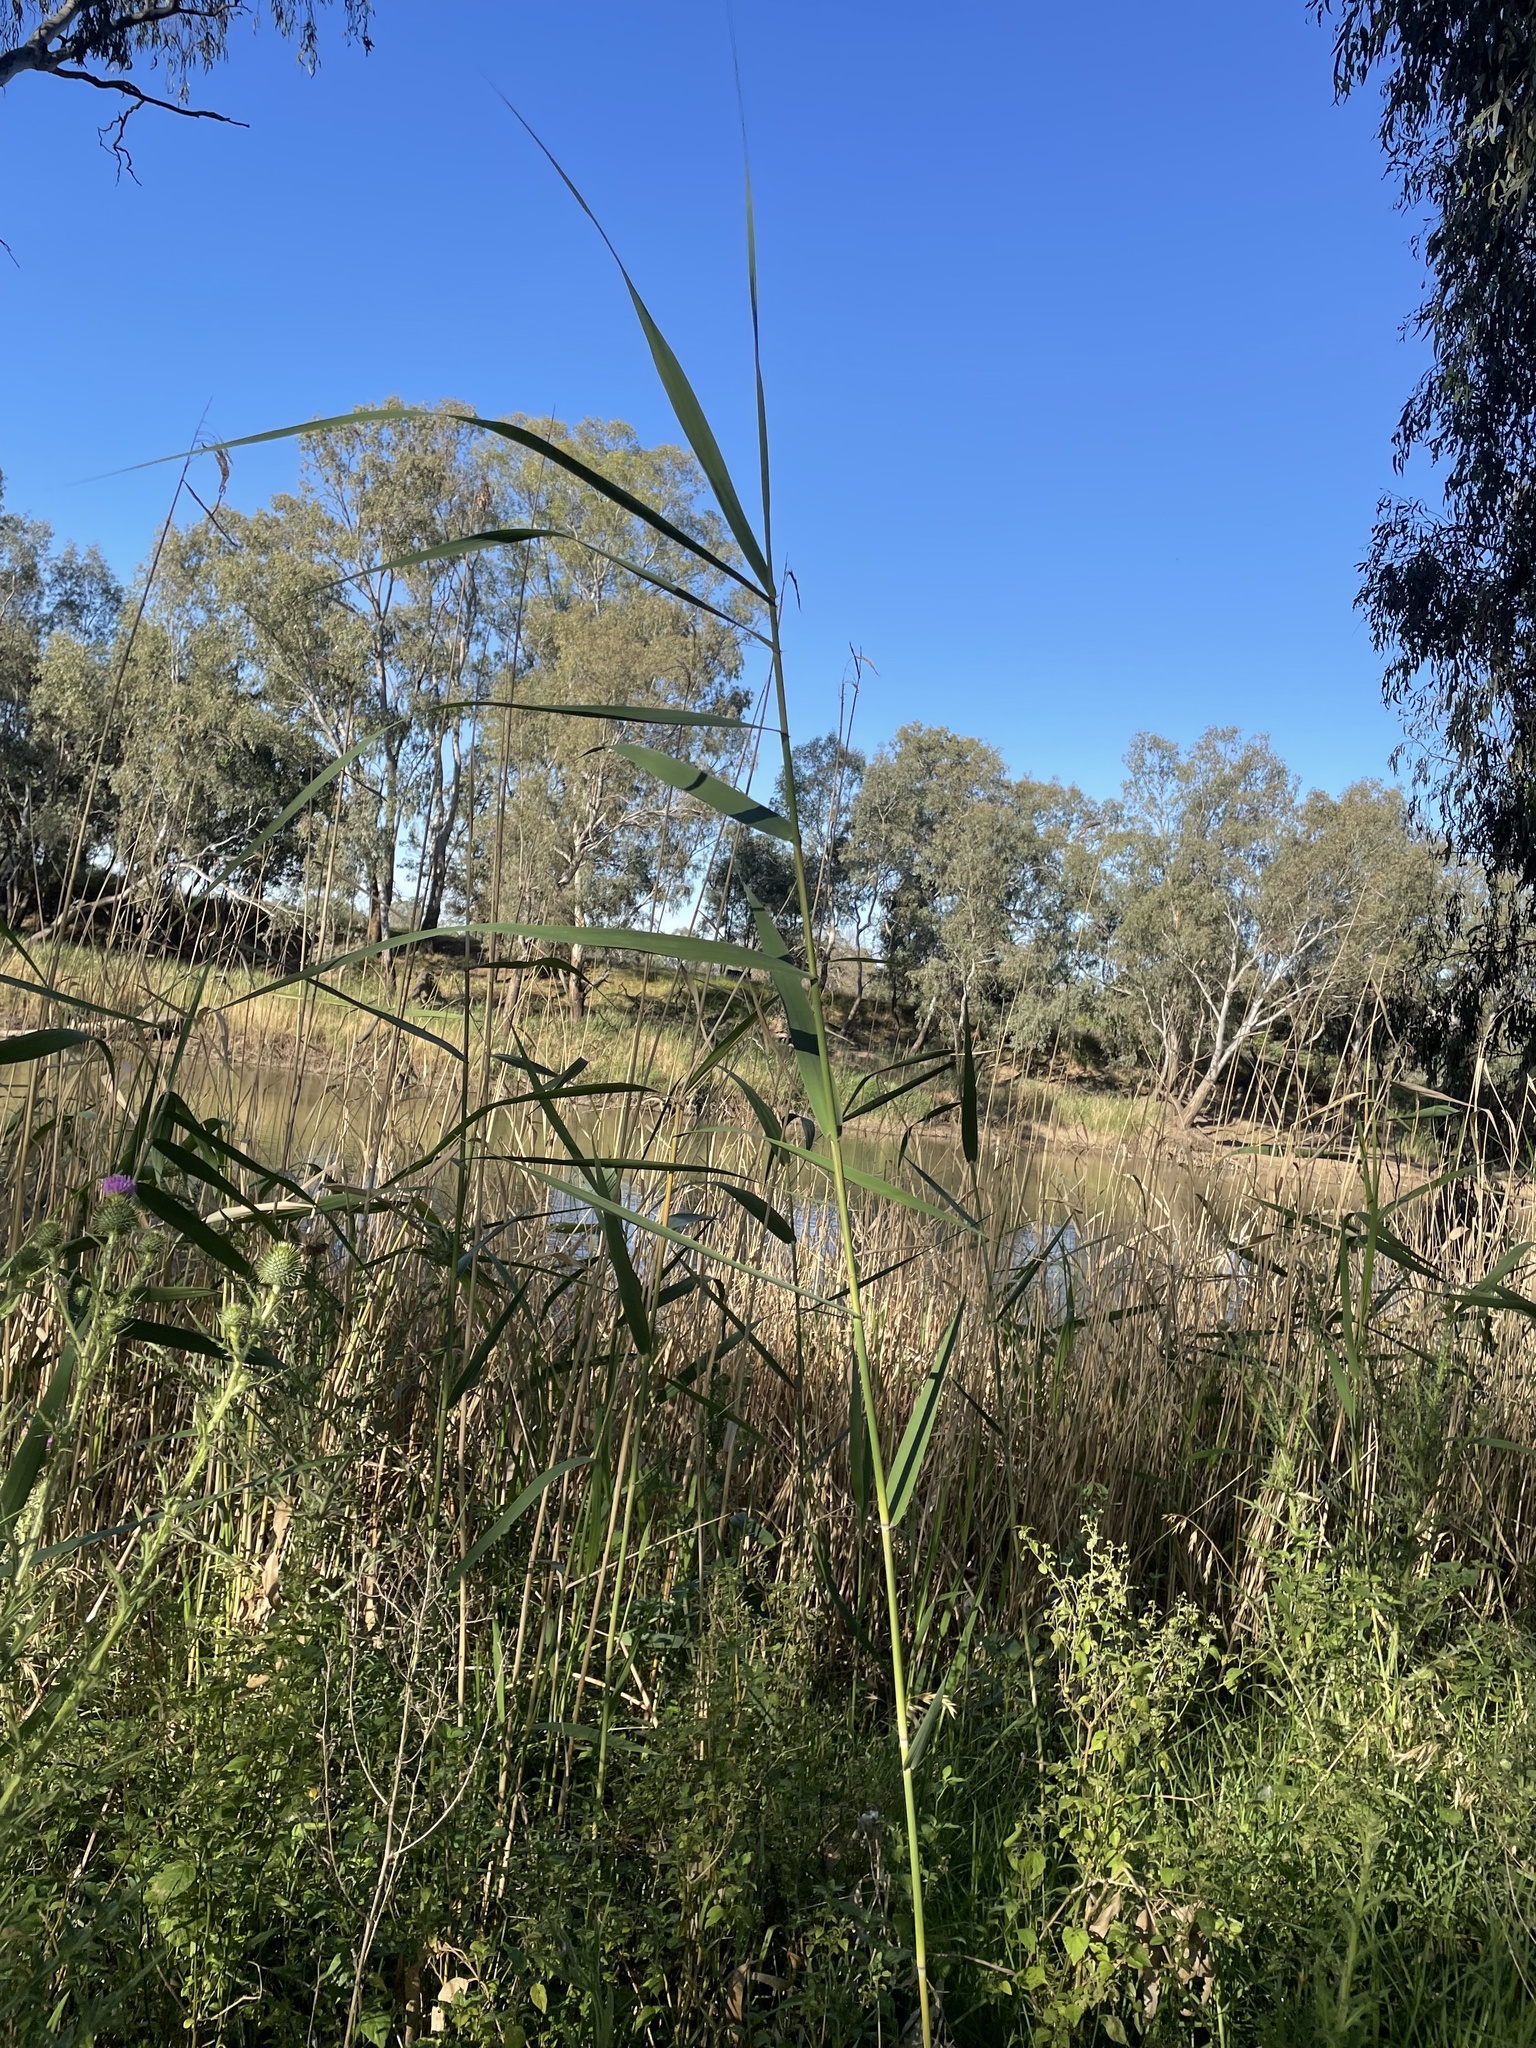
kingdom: Plantae
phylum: Tracheophyta
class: Liliopsida
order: Poales
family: Poaceae
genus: Phragmites
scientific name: Phragmites australis
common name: Common reed
